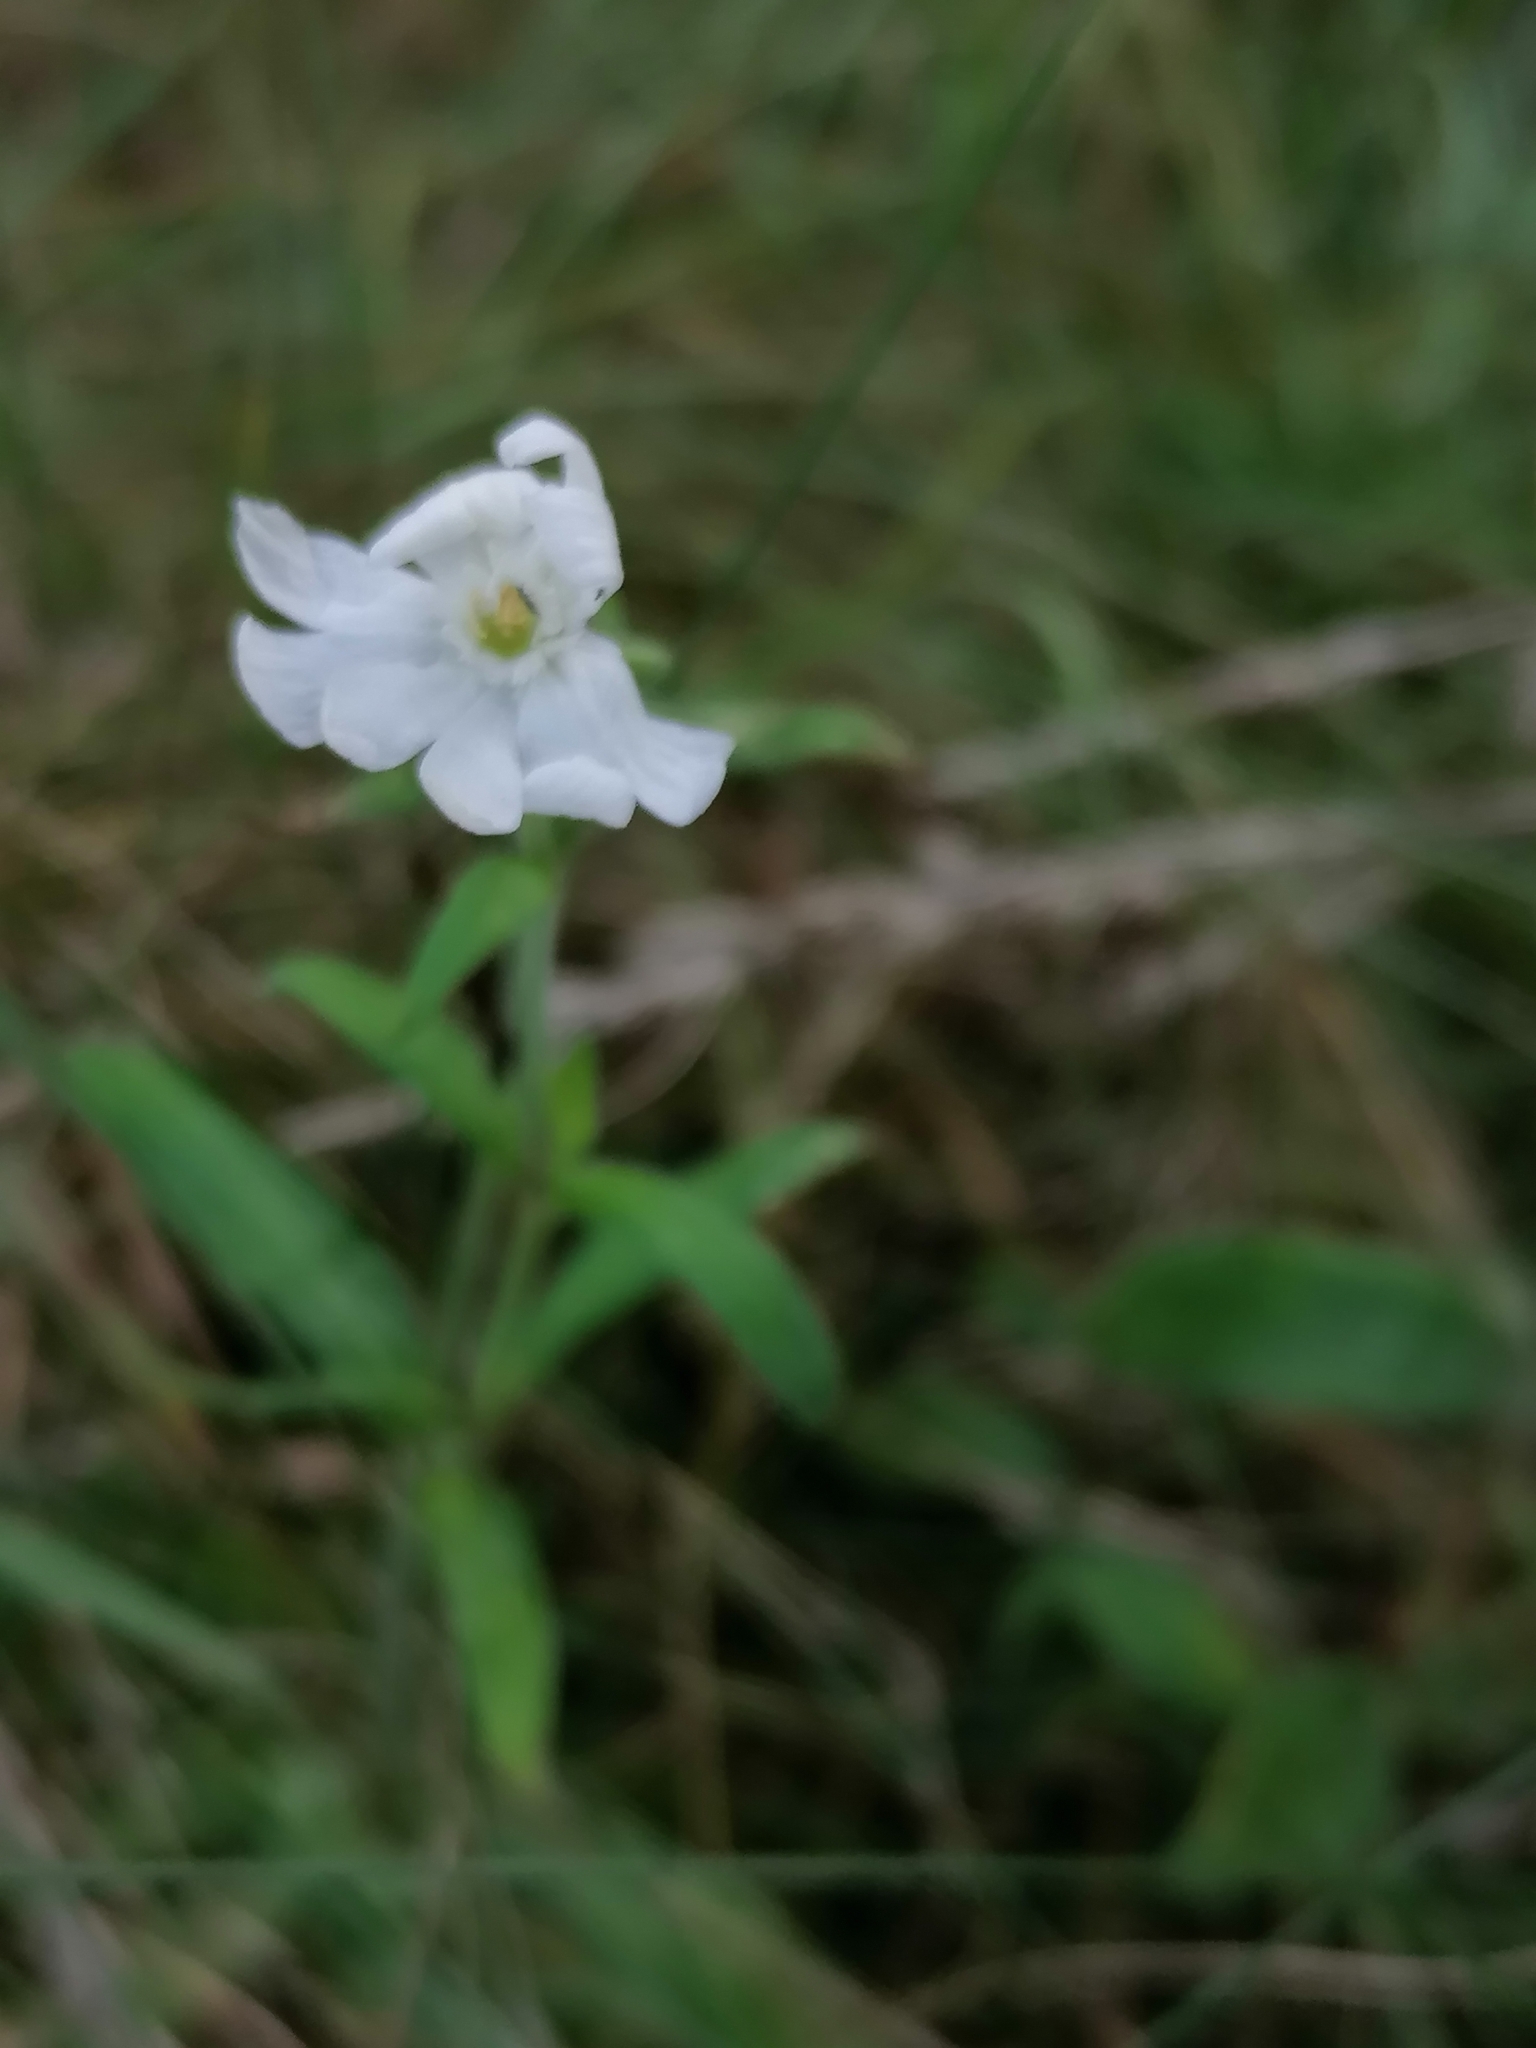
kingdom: Plantae
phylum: Tracheophyta
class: Magnoliopsida
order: Caryophyllales
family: Caryophyllaceae
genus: Silene
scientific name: Silene latifolia
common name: White campion
